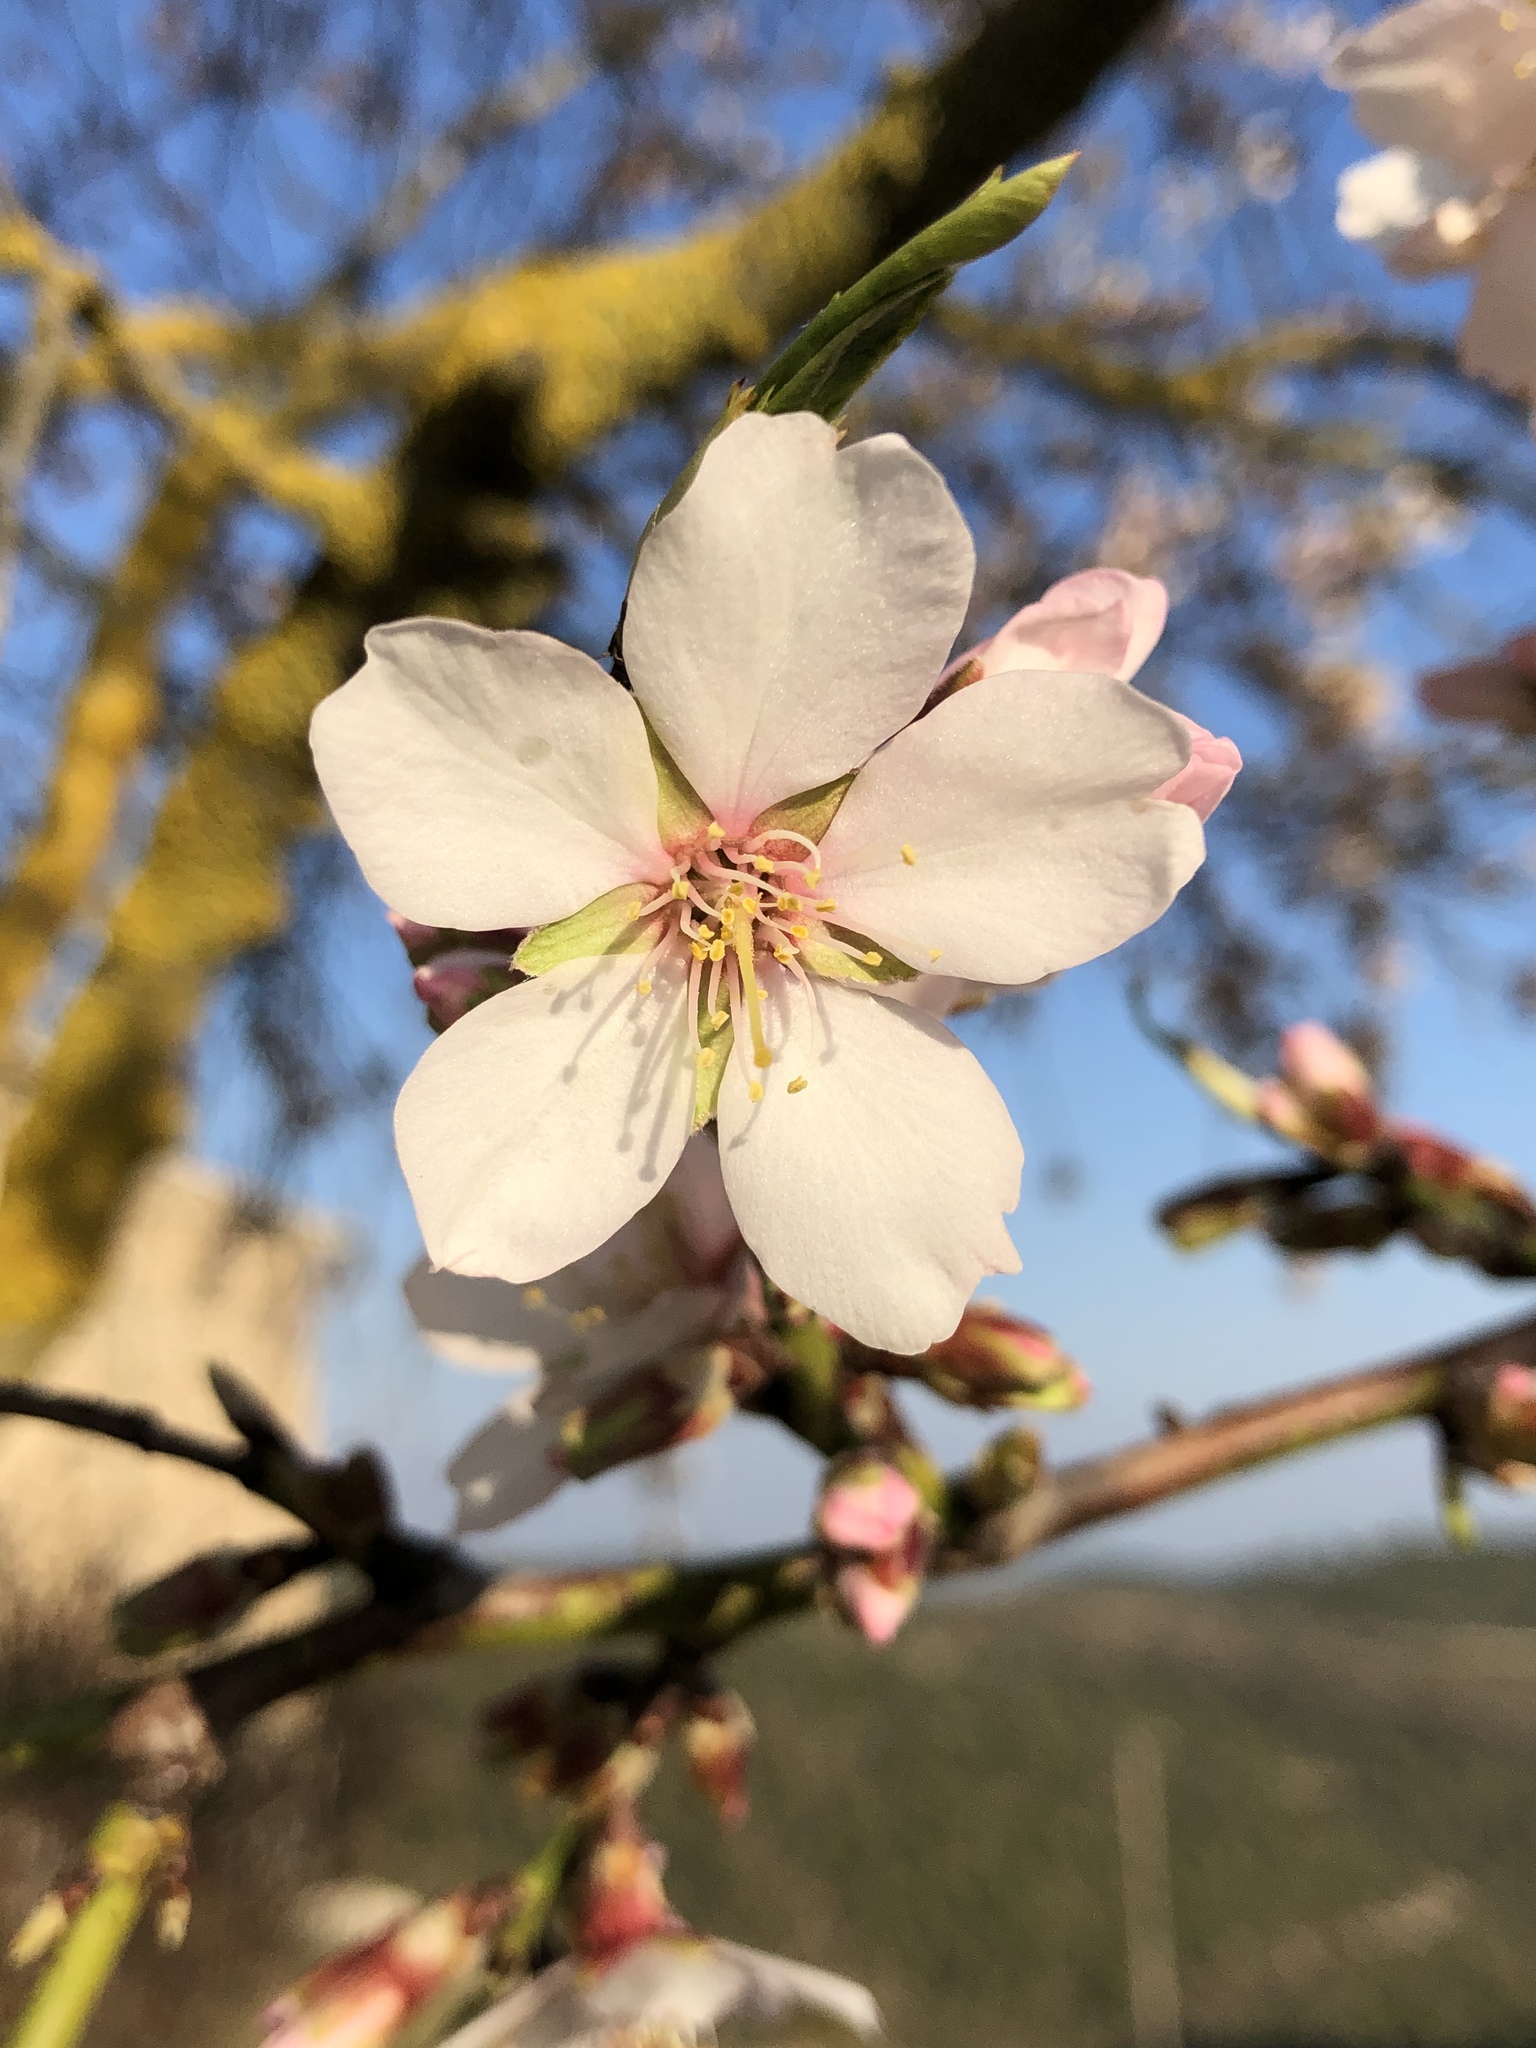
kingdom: Plantae
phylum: Tracheophyta
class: Magnoliopsida
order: Rosales
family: Rosaceae
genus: Prunus
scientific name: Prunus amygdalus
